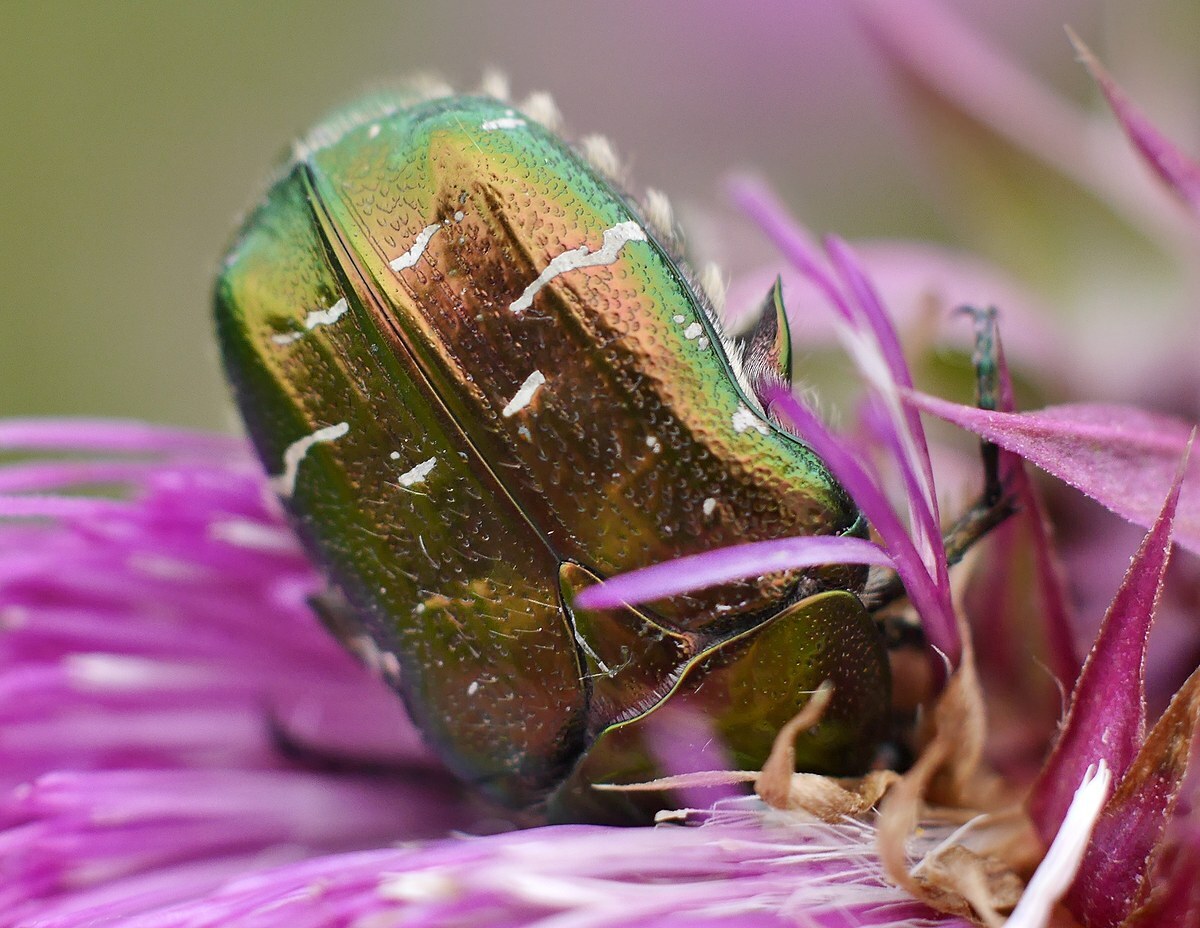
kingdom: Animalia
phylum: Arthropoda
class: Insecta
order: Coleoptera
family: Scarabaeidae
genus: Cetonia
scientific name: Cetonia aurata
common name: Rose chafer
